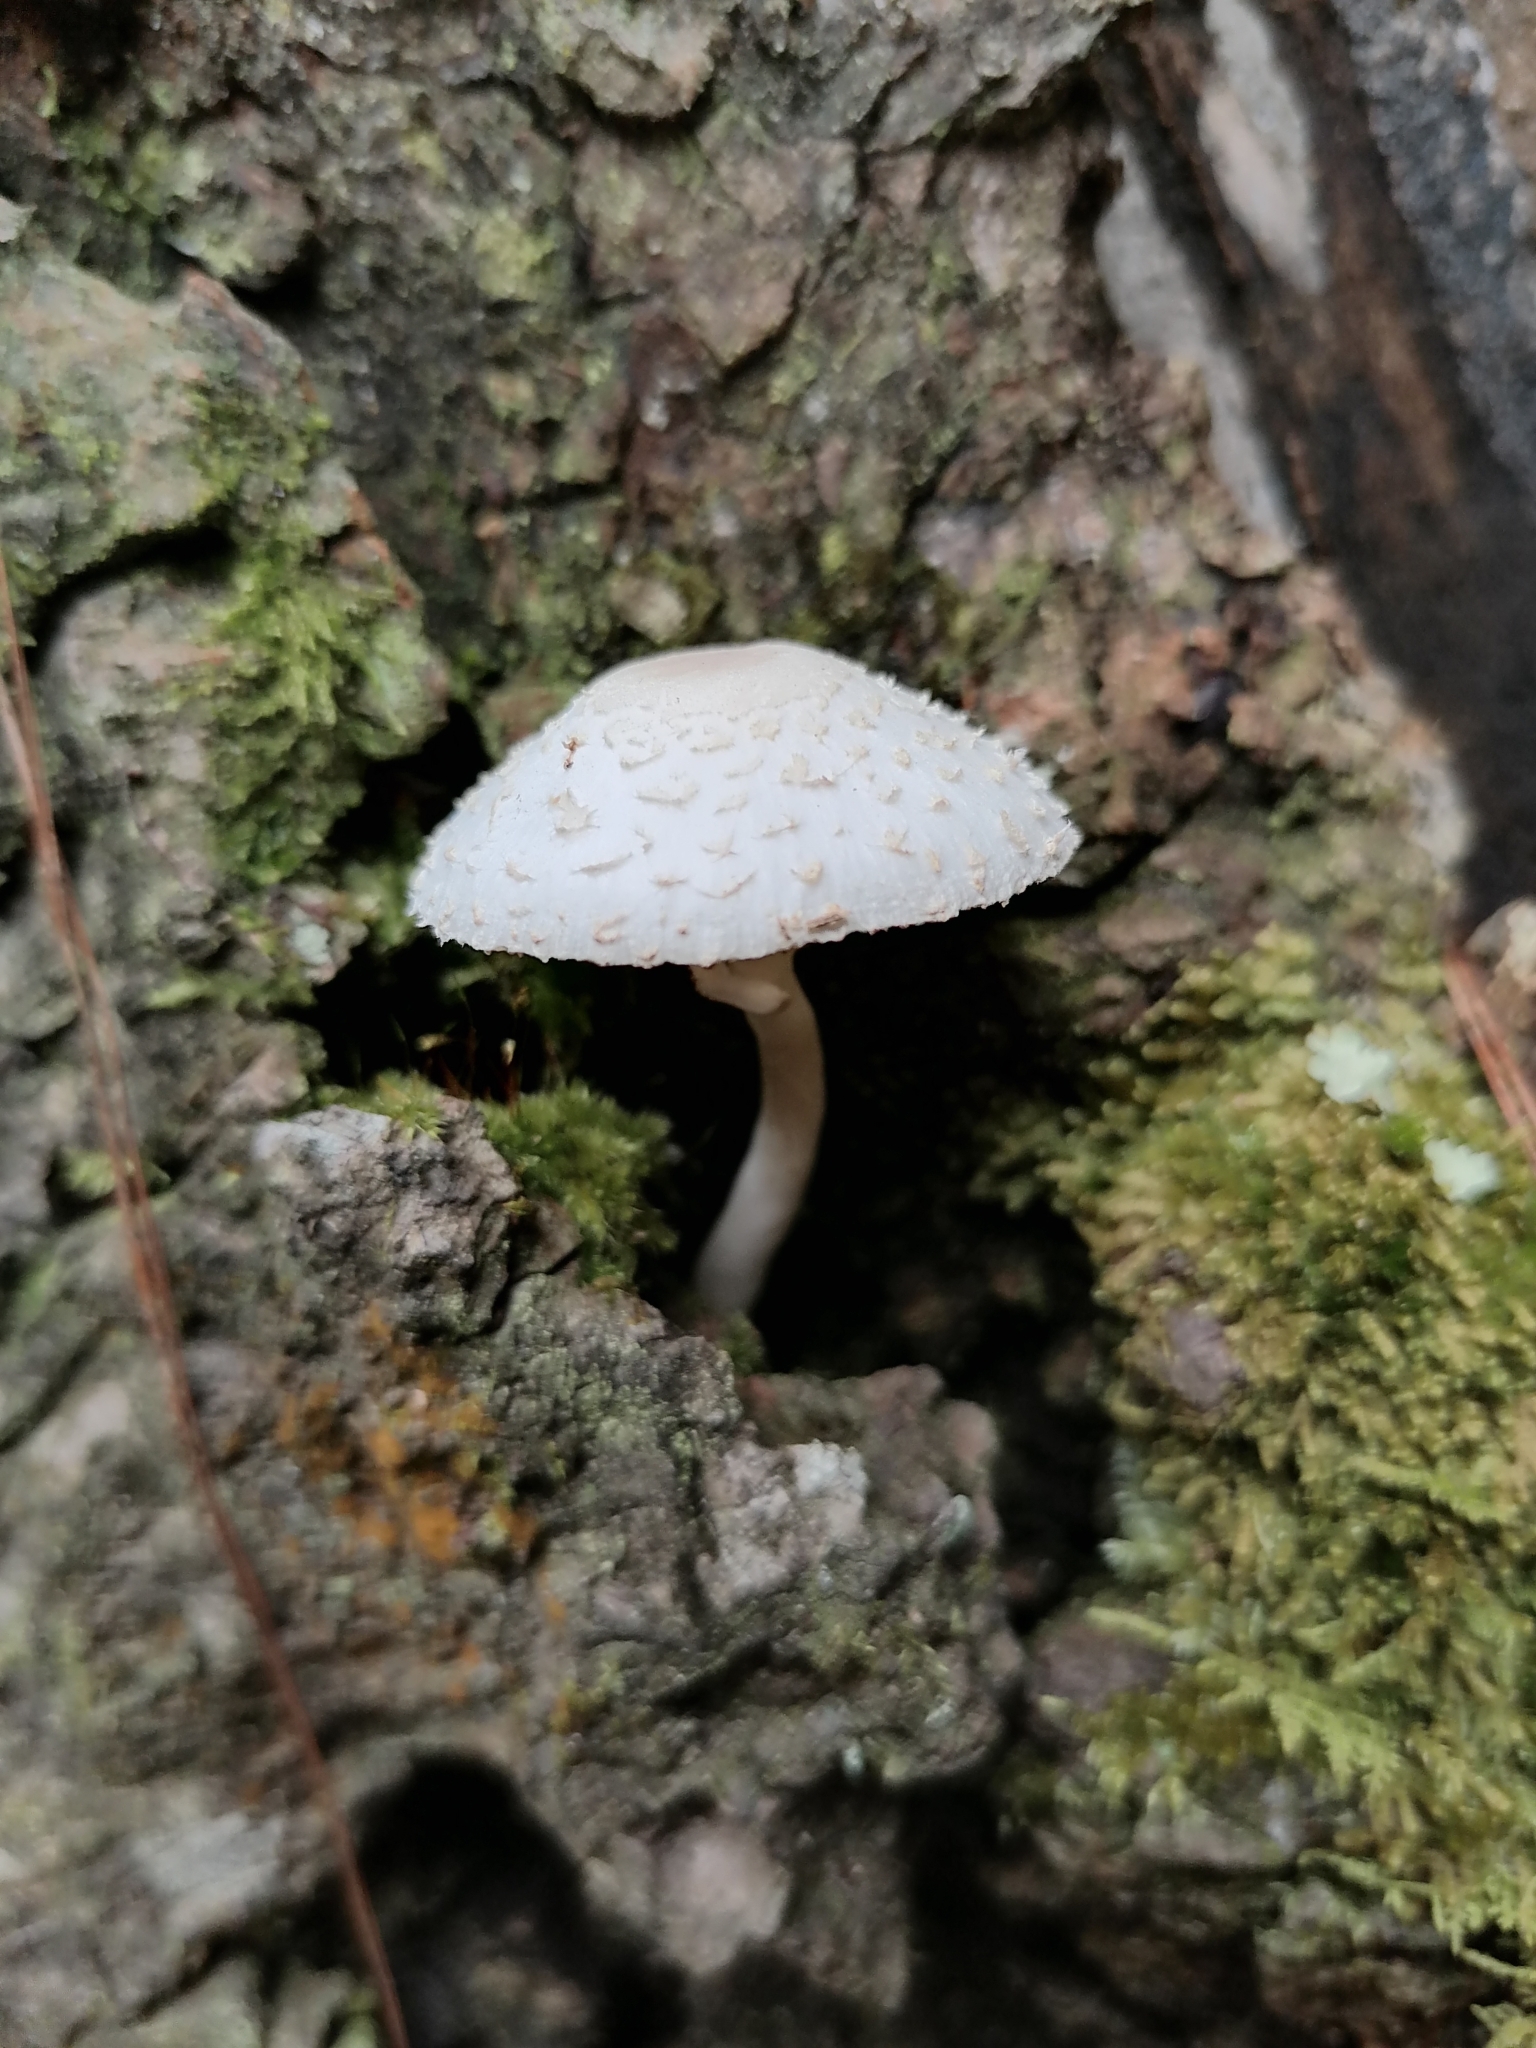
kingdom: Fungi
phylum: Basidiomycota
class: Agaricomycetes
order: Agaricales
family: Agaricaceae
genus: Lepiota
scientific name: Lepiota clypeolaria
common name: Shield dapperling
